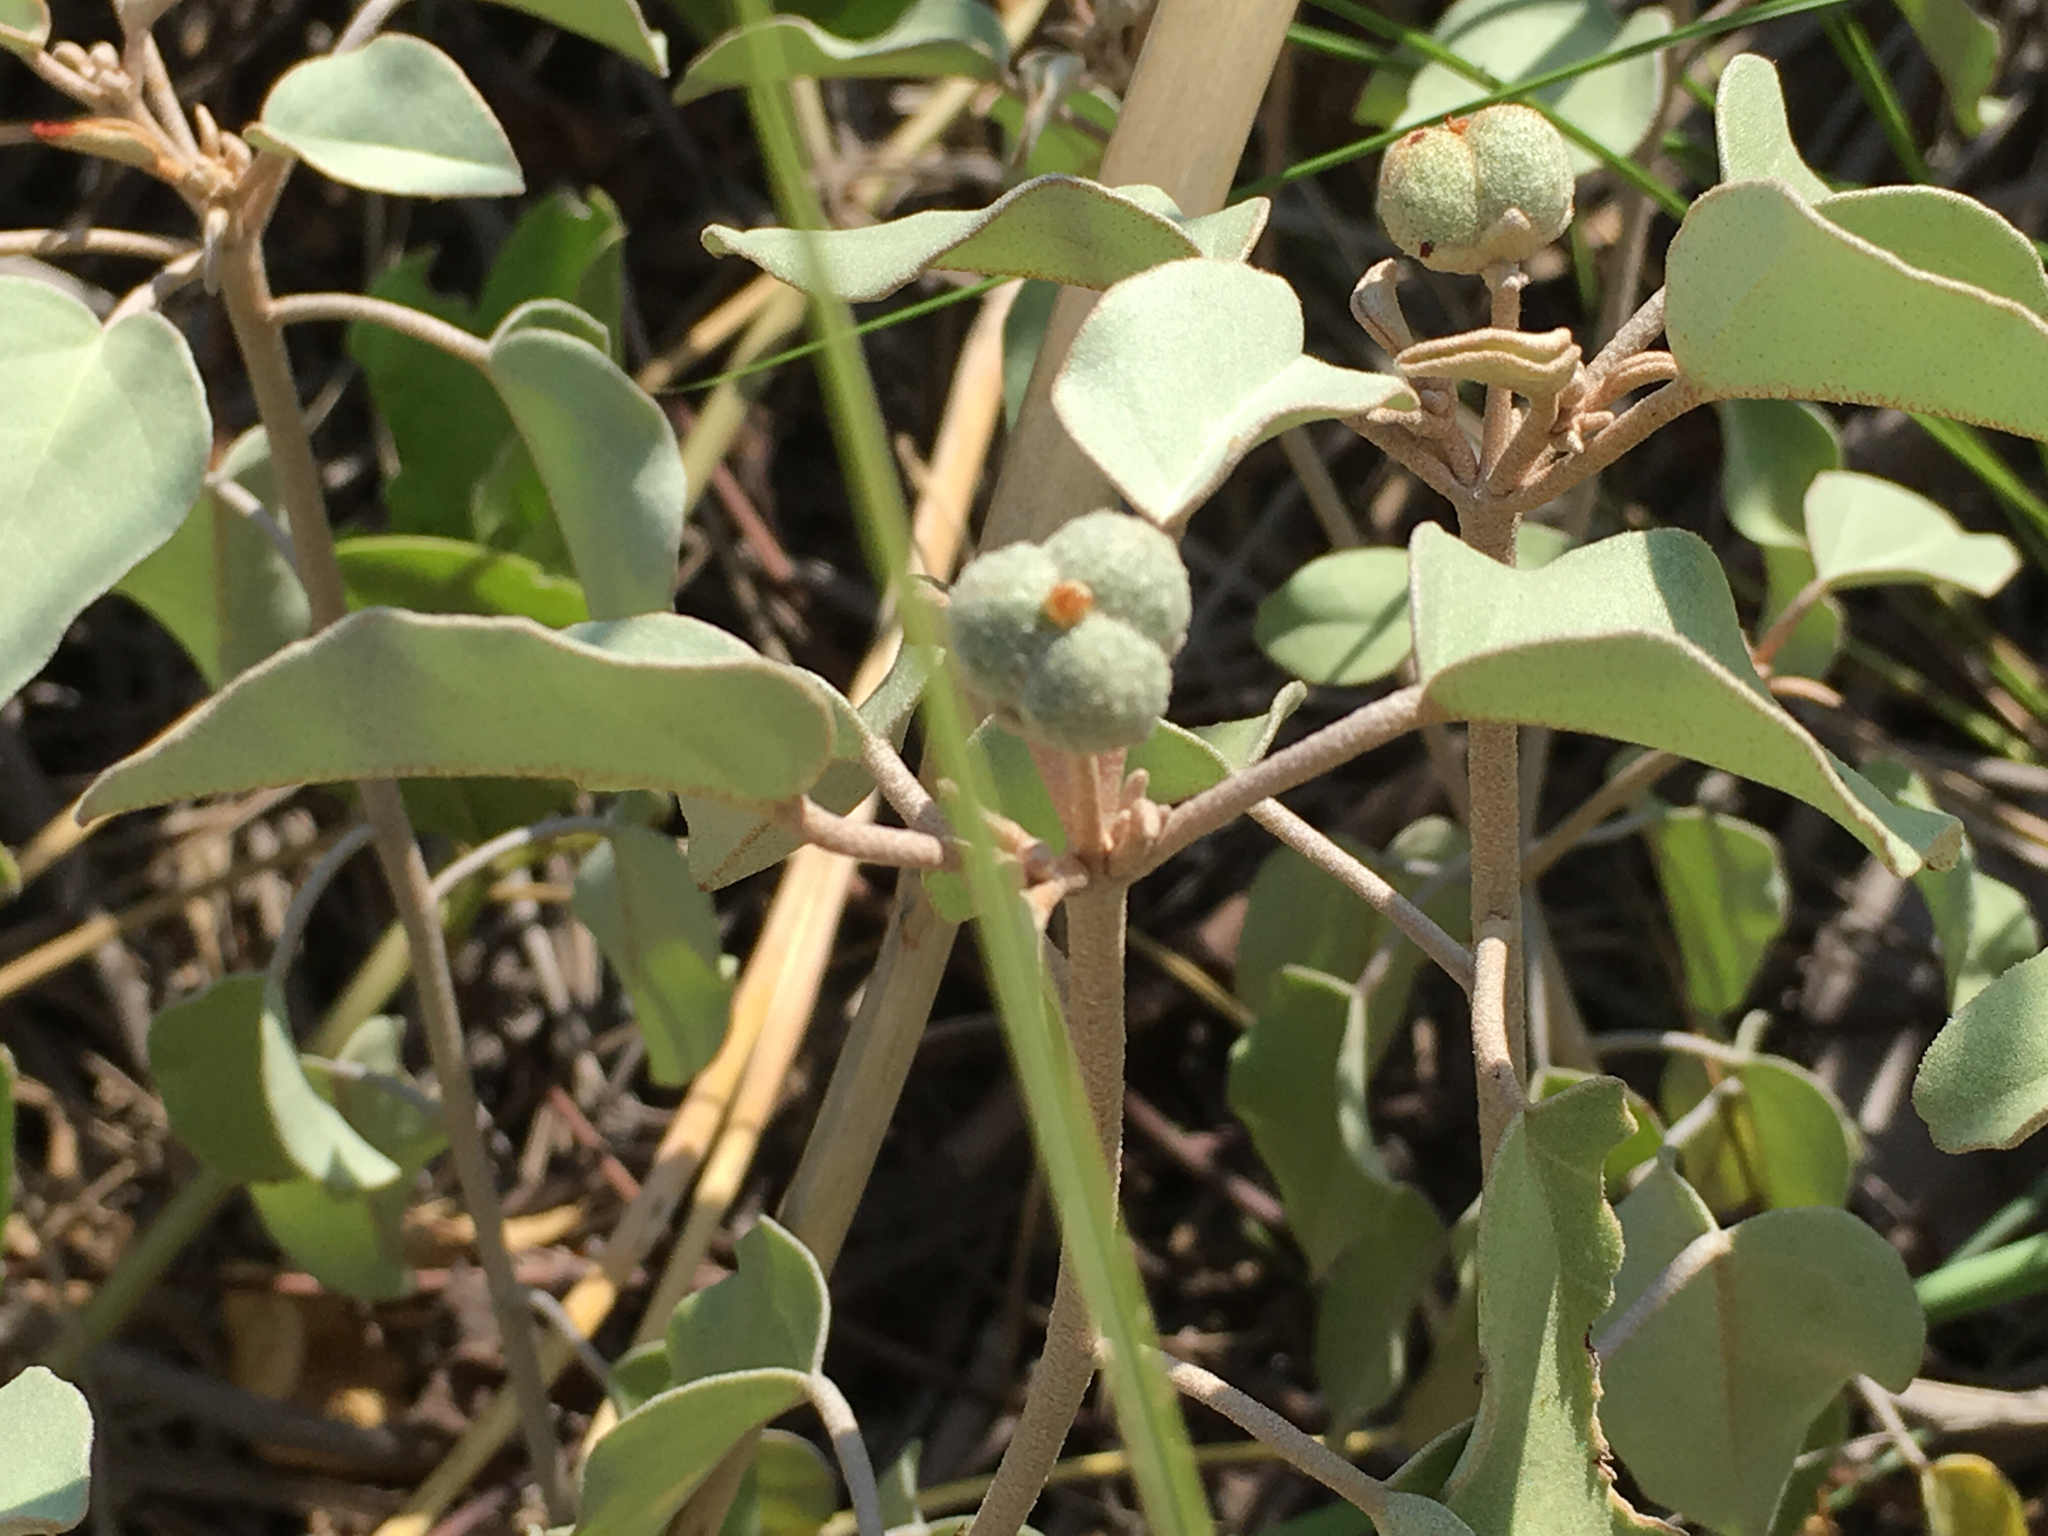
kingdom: Plantae
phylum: Tracheophyta
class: Magnoliopsida
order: Malpighiales
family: Euphorbiaceae
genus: Croton
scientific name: Croton punctatus
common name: Beach-tea
